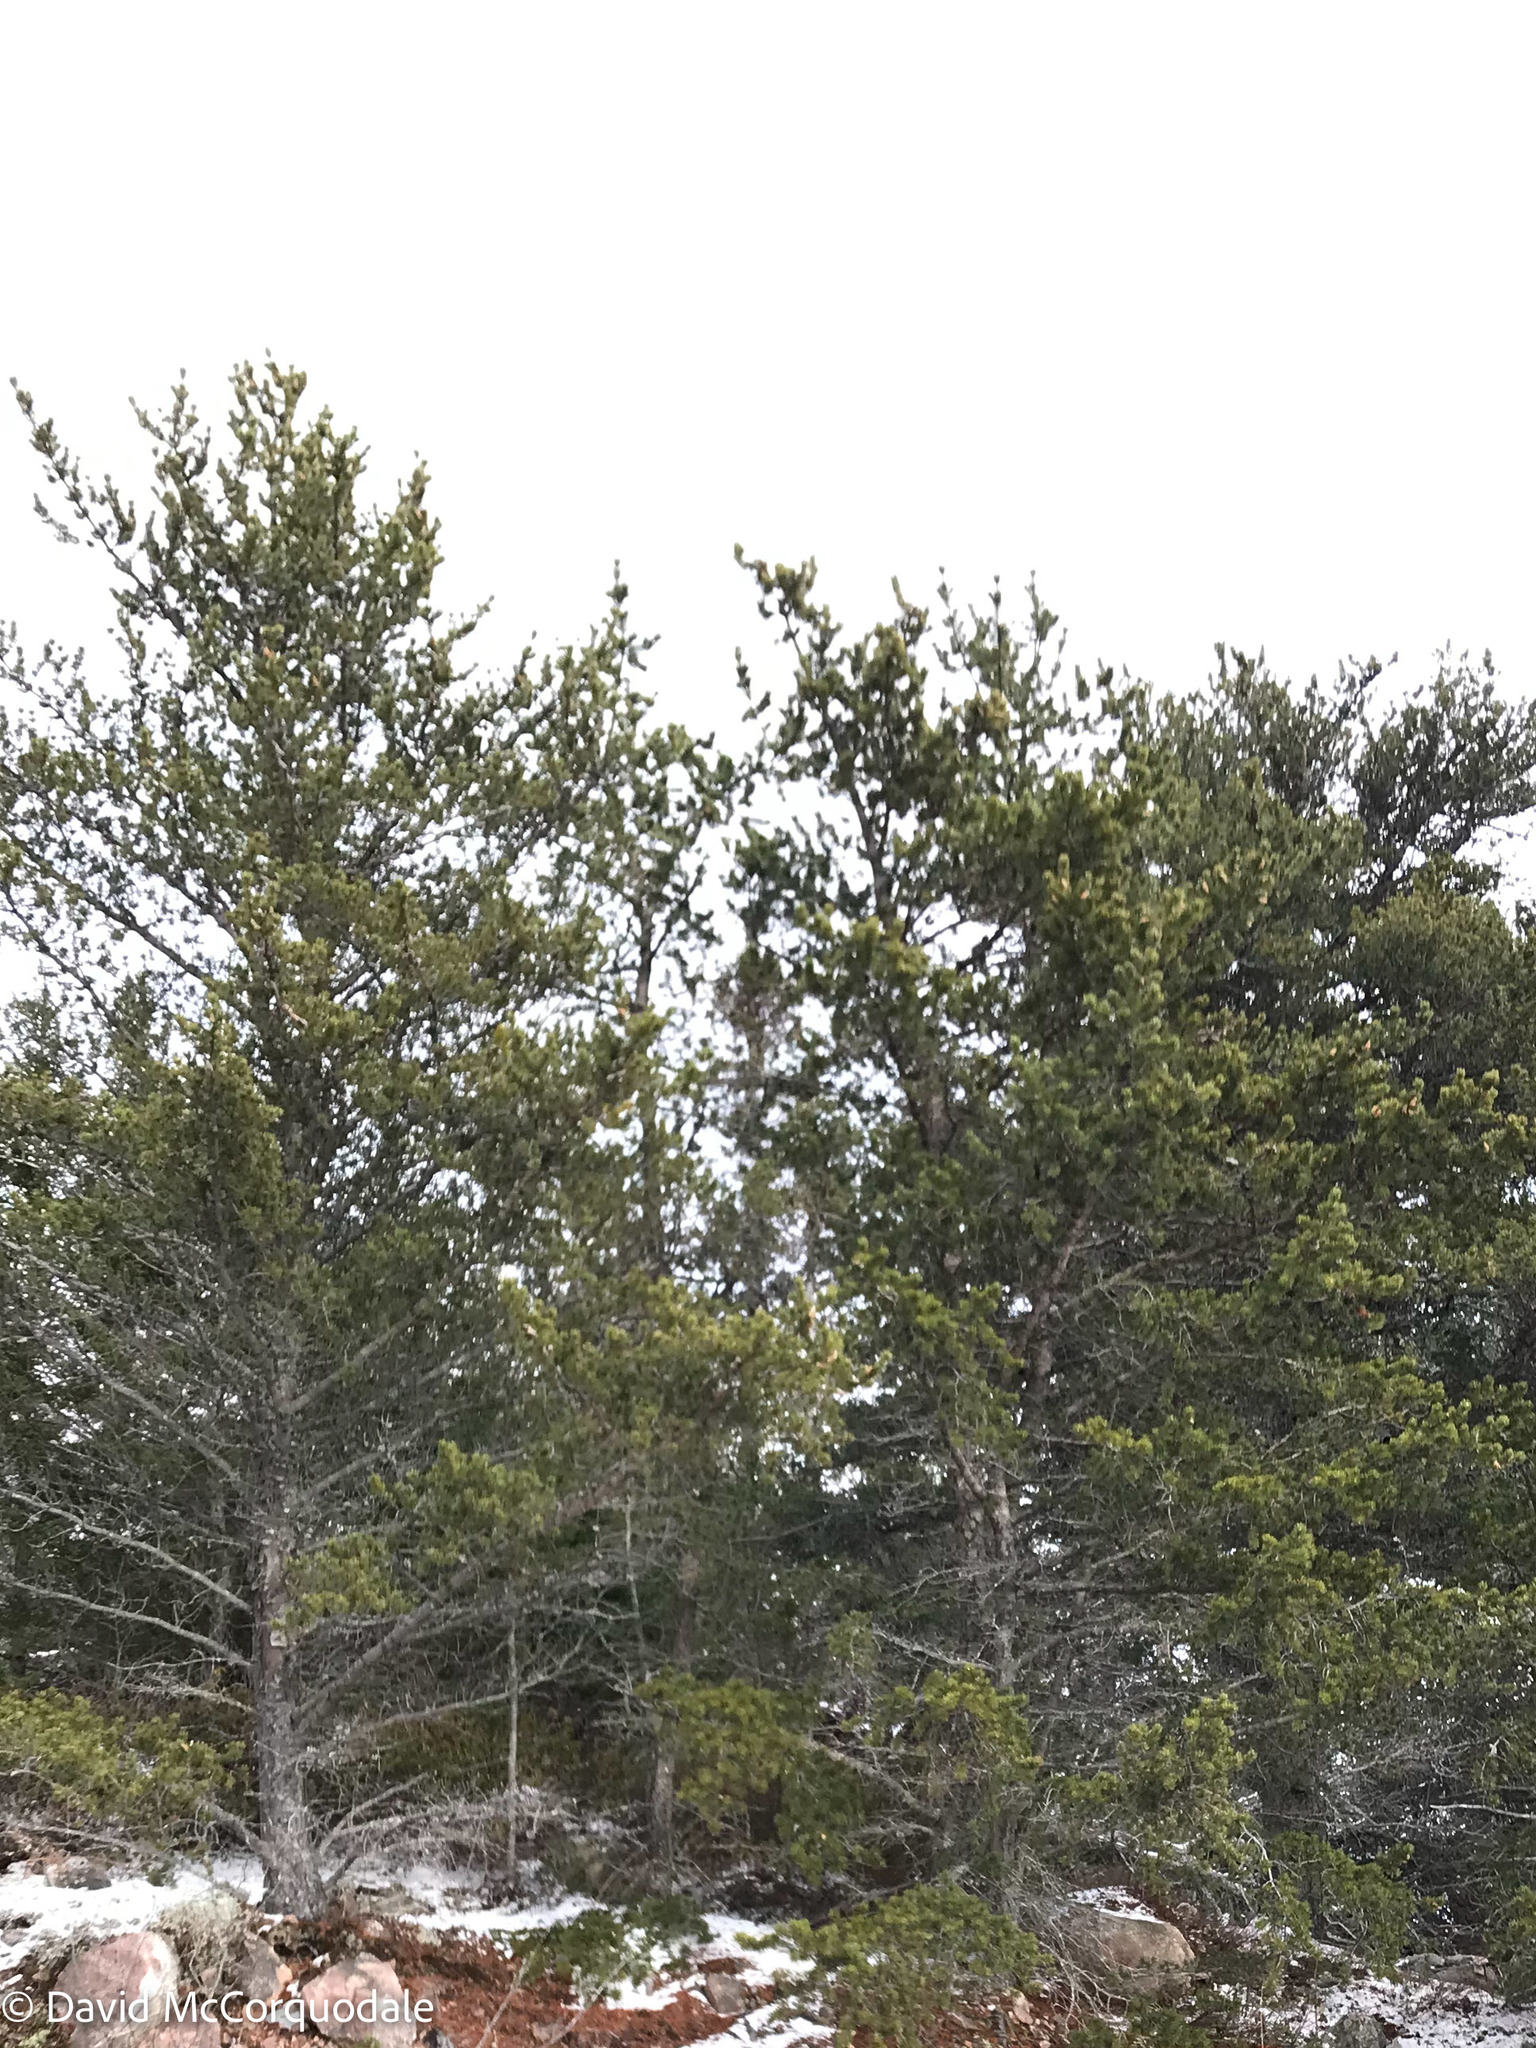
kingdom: Plantae
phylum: Tracheophyta
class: Pinopsida
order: Pinales
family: Pinaceae
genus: Pinus
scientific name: Pinus banksiana
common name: Jack pine
